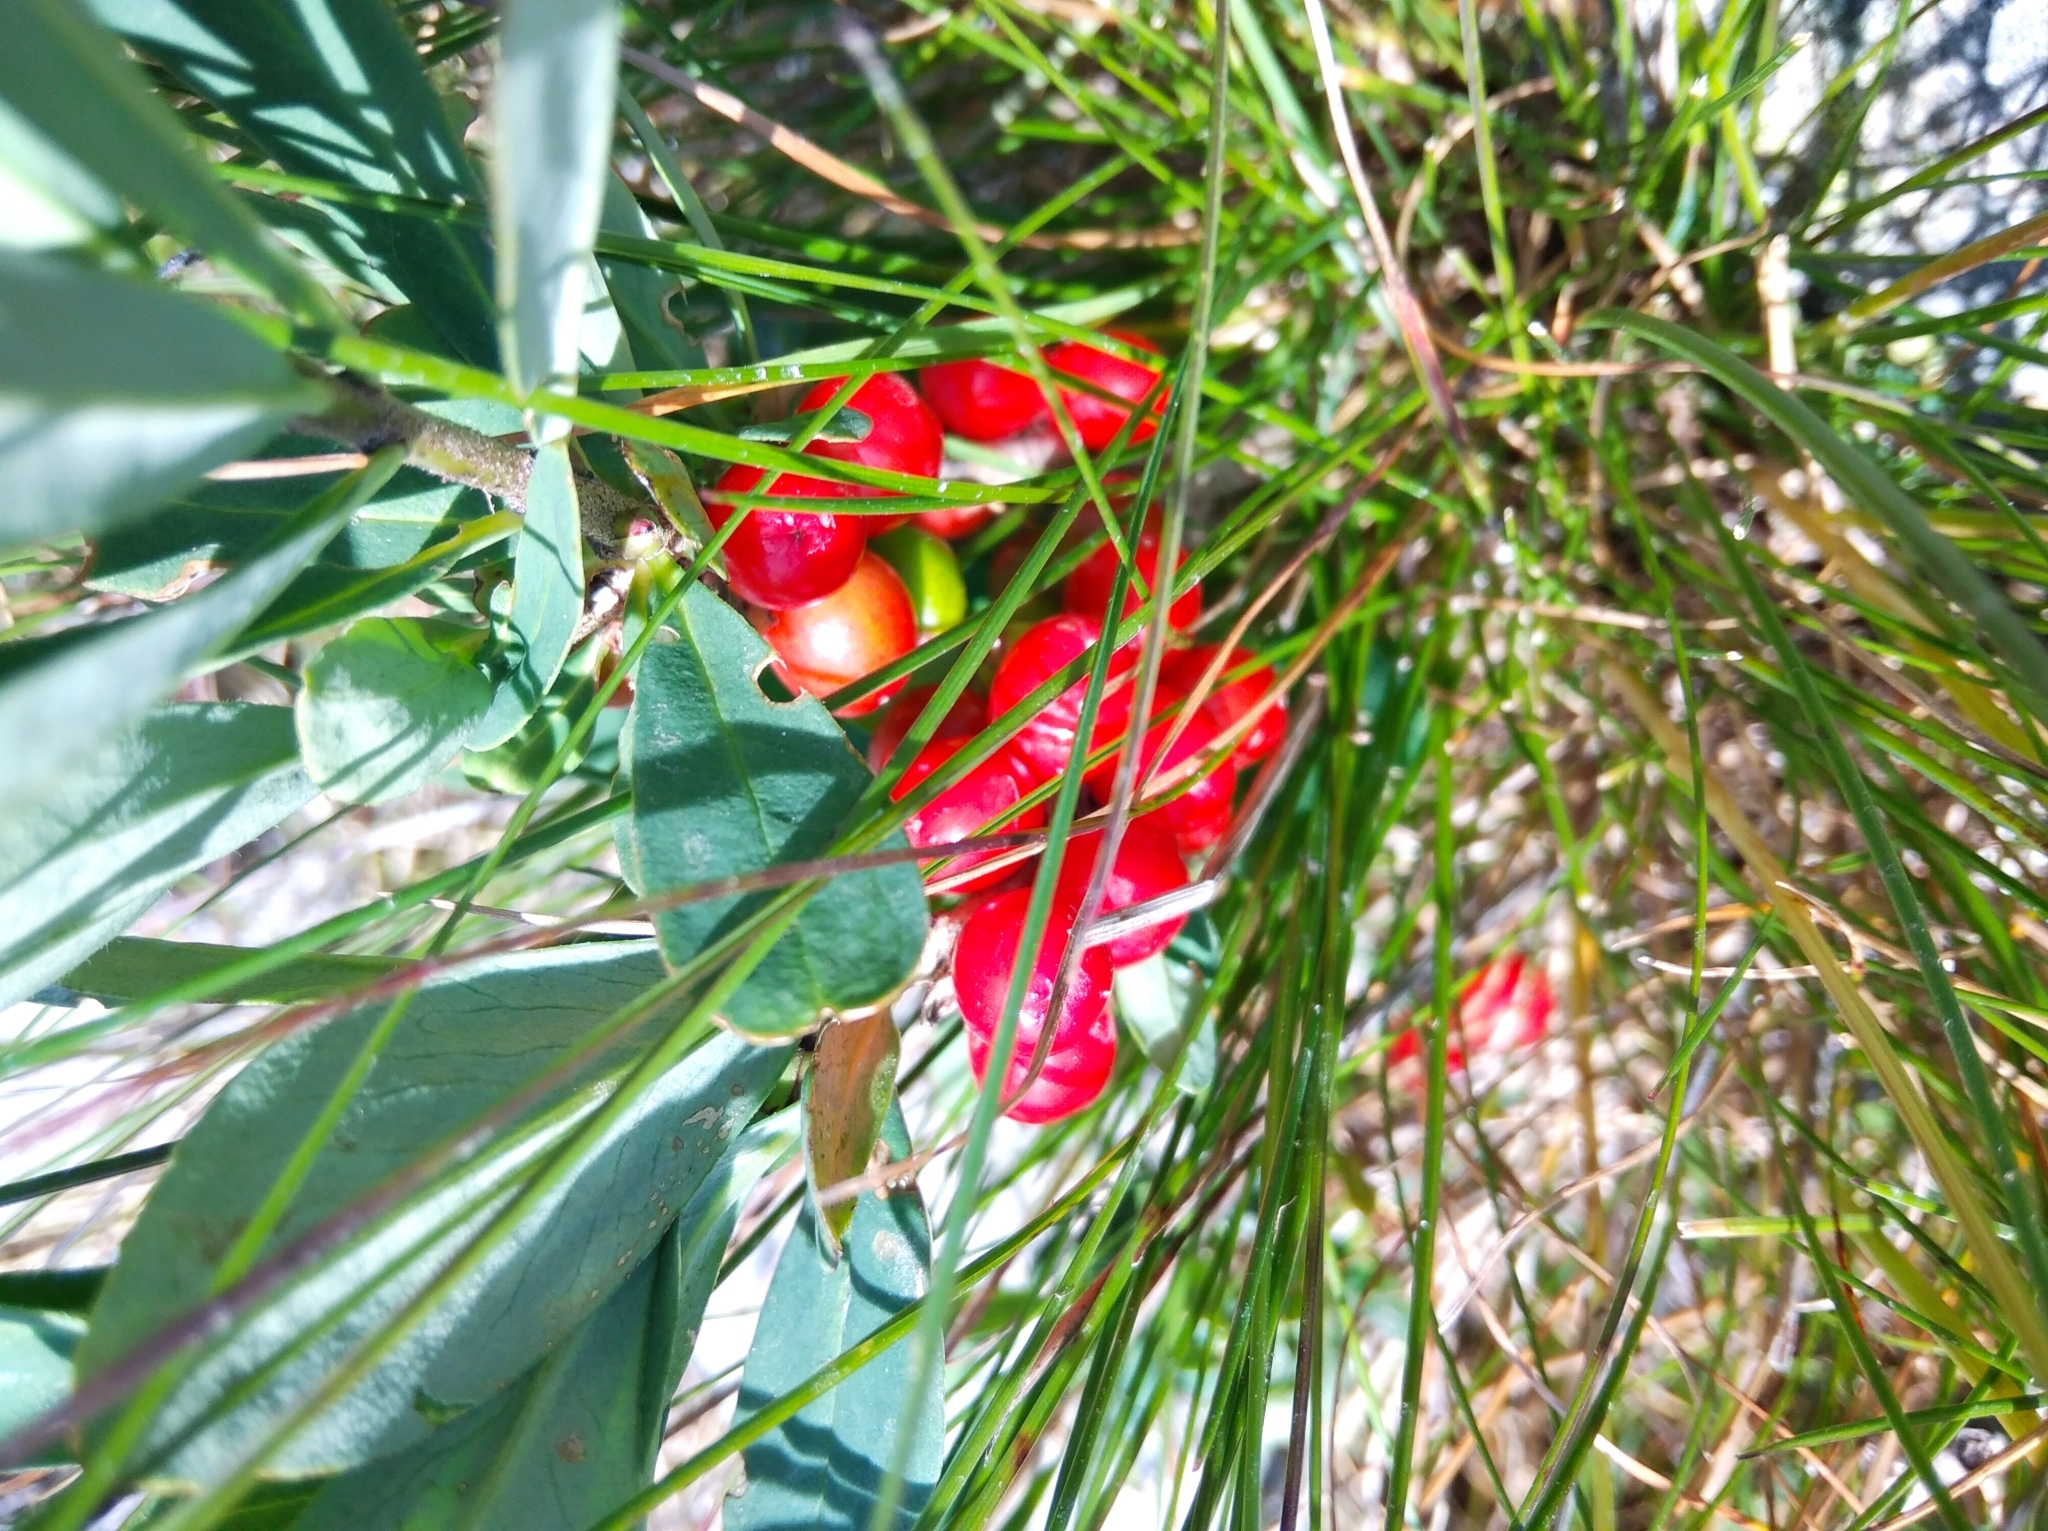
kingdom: Plantae
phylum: Tracheophyta
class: Magnoliopsida
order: Malvales
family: Thymelaeaceae
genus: Daphne
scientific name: Daphne mezereum
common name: Mezereon
